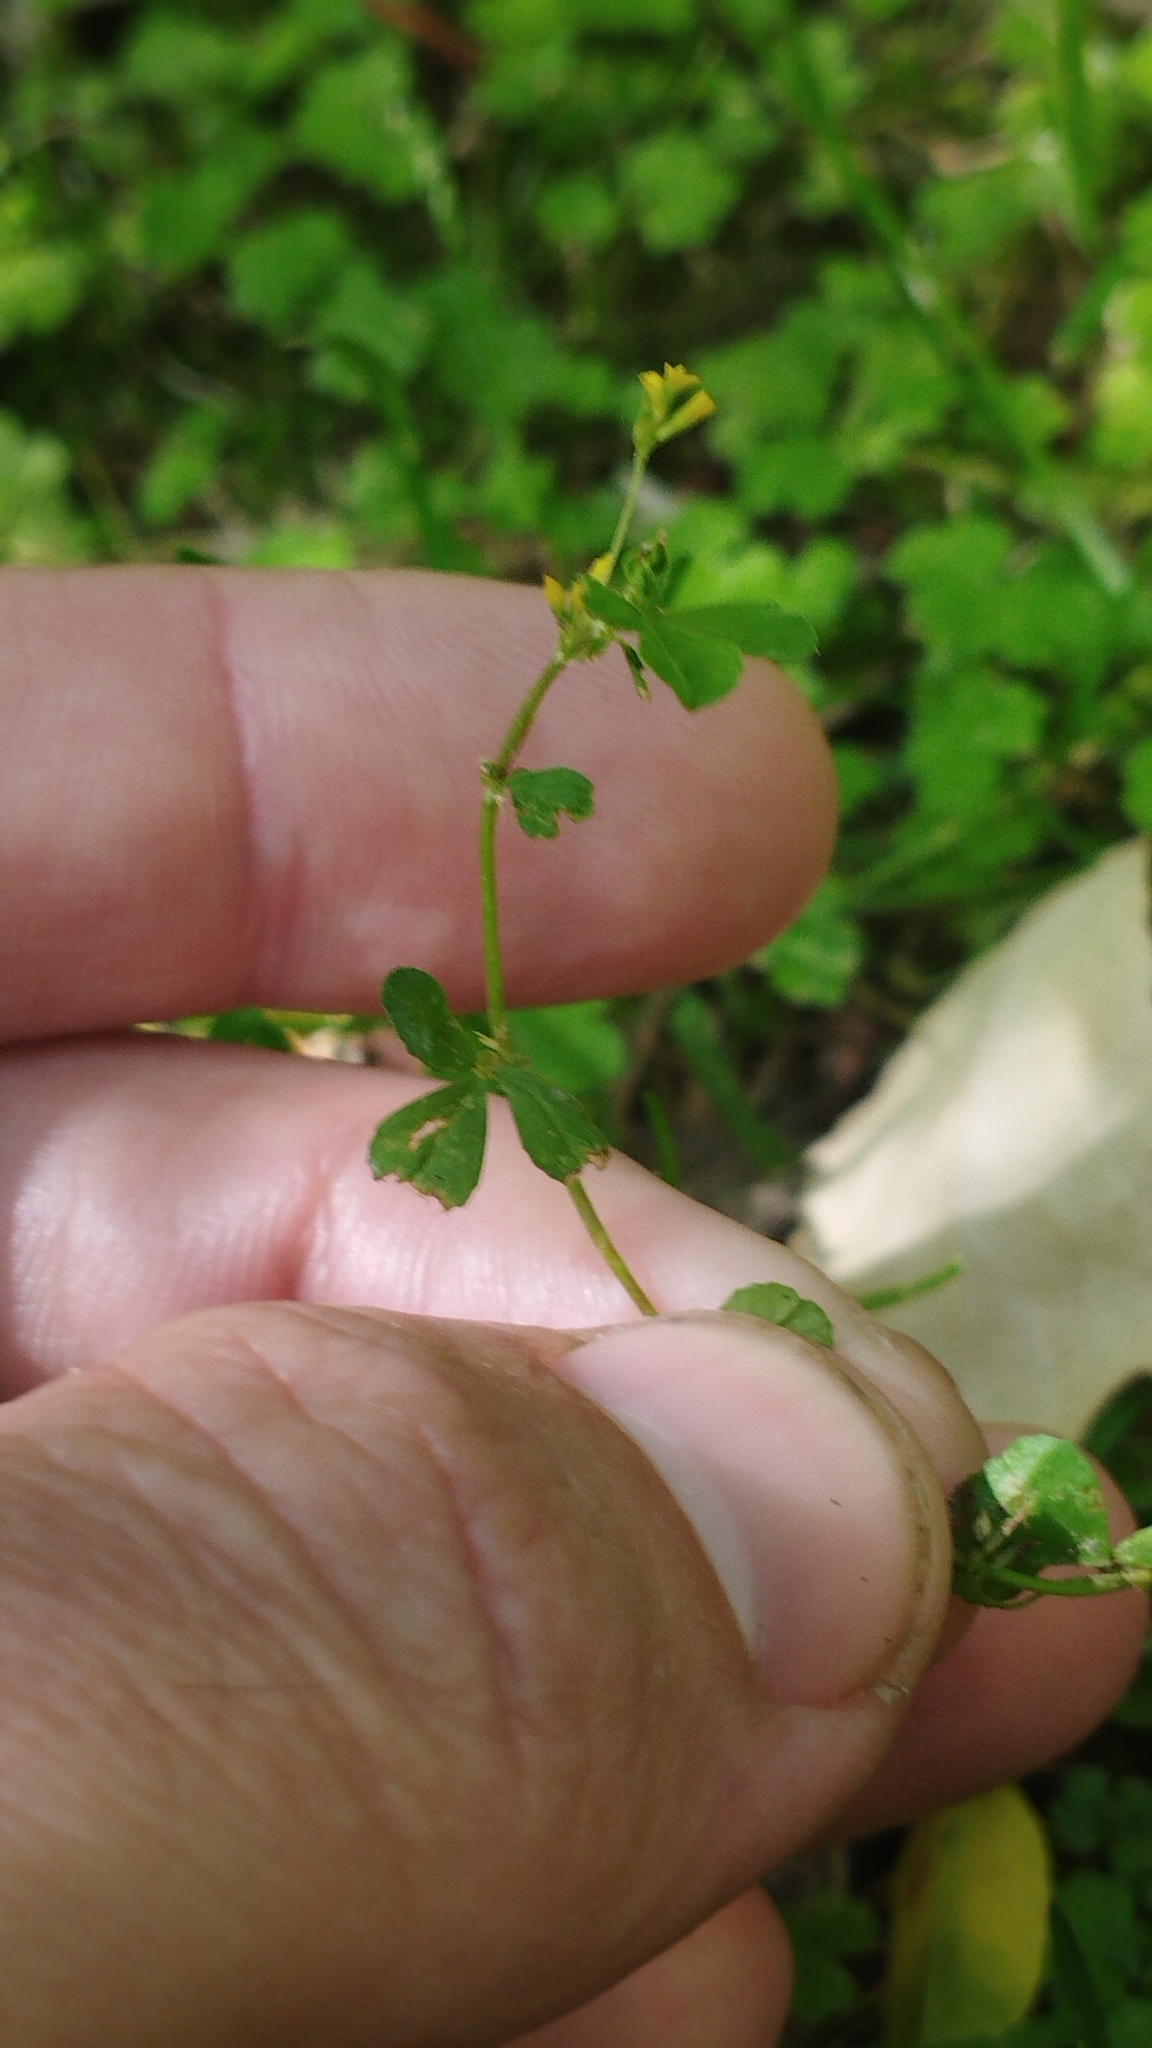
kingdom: Plantae
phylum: Tracheophyta
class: Magnoliopsida
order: Fabales
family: Fabaceae
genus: Trifolium
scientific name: Trifolium micranthum
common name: Slender trefoil
